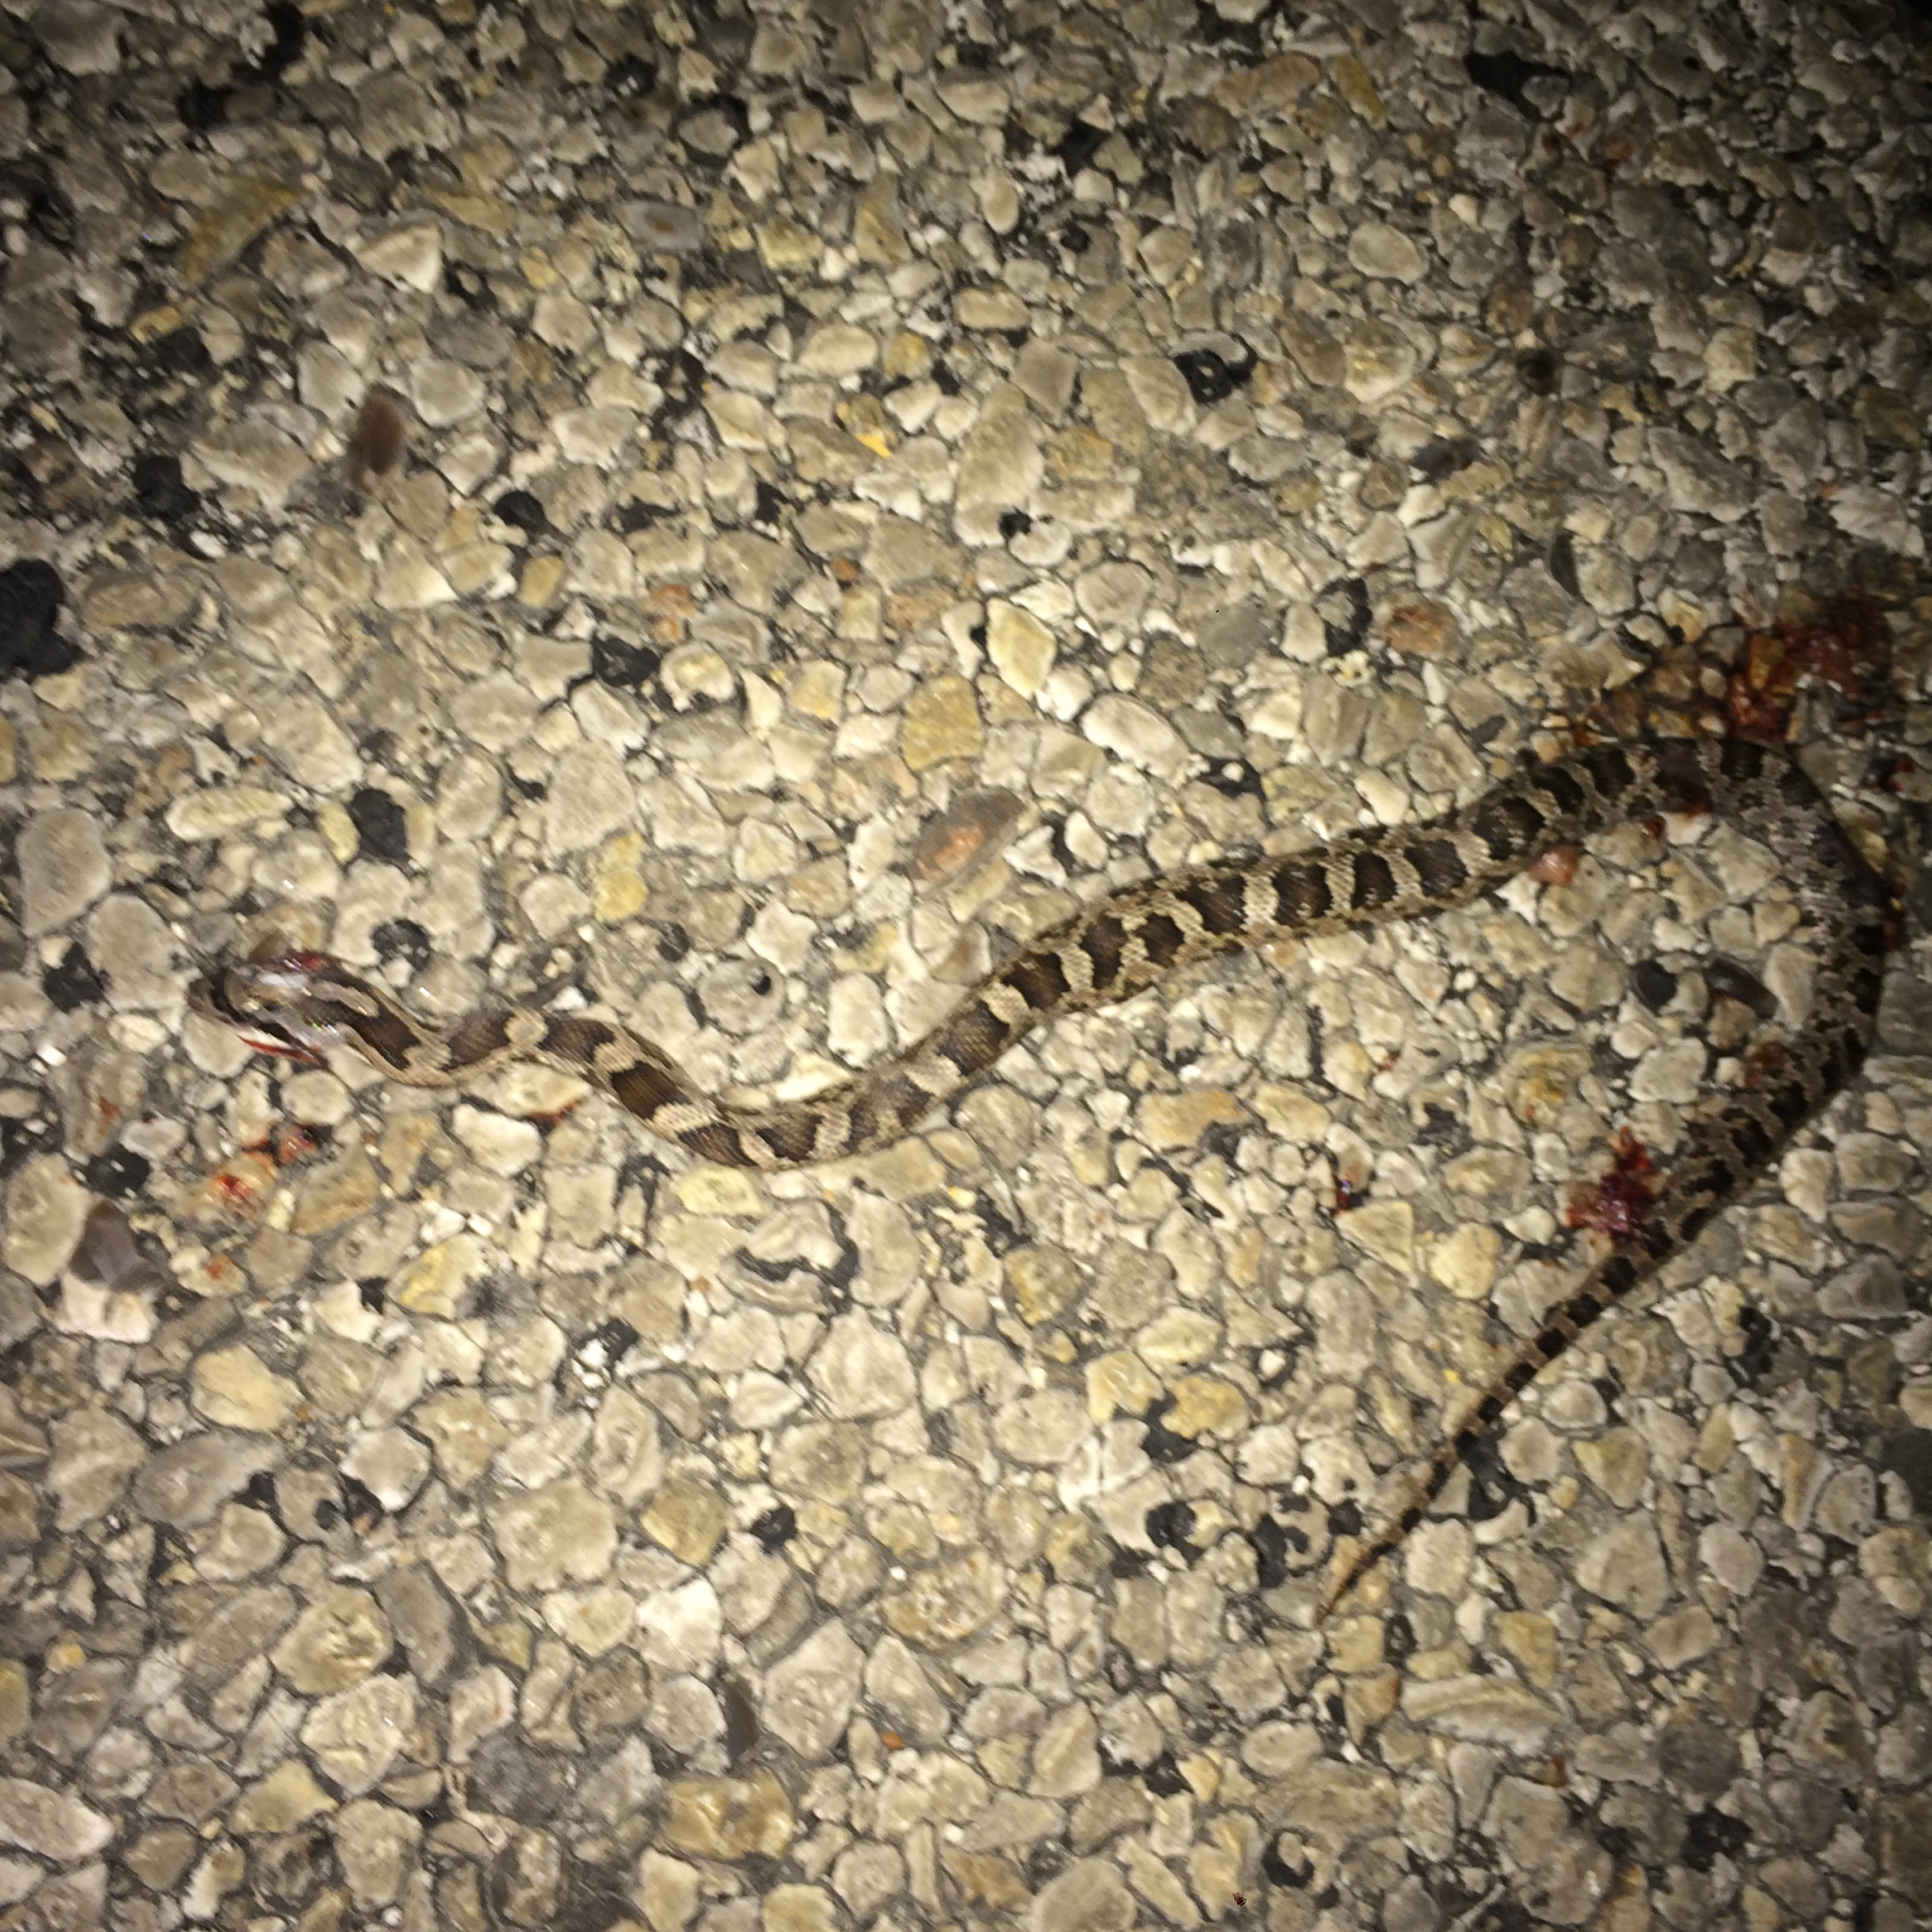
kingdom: Animalia
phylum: Chordata
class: Squamata
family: Colubridae
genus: Pantherophis
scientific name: Pantherophis obsoletus
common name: Black rat snake
